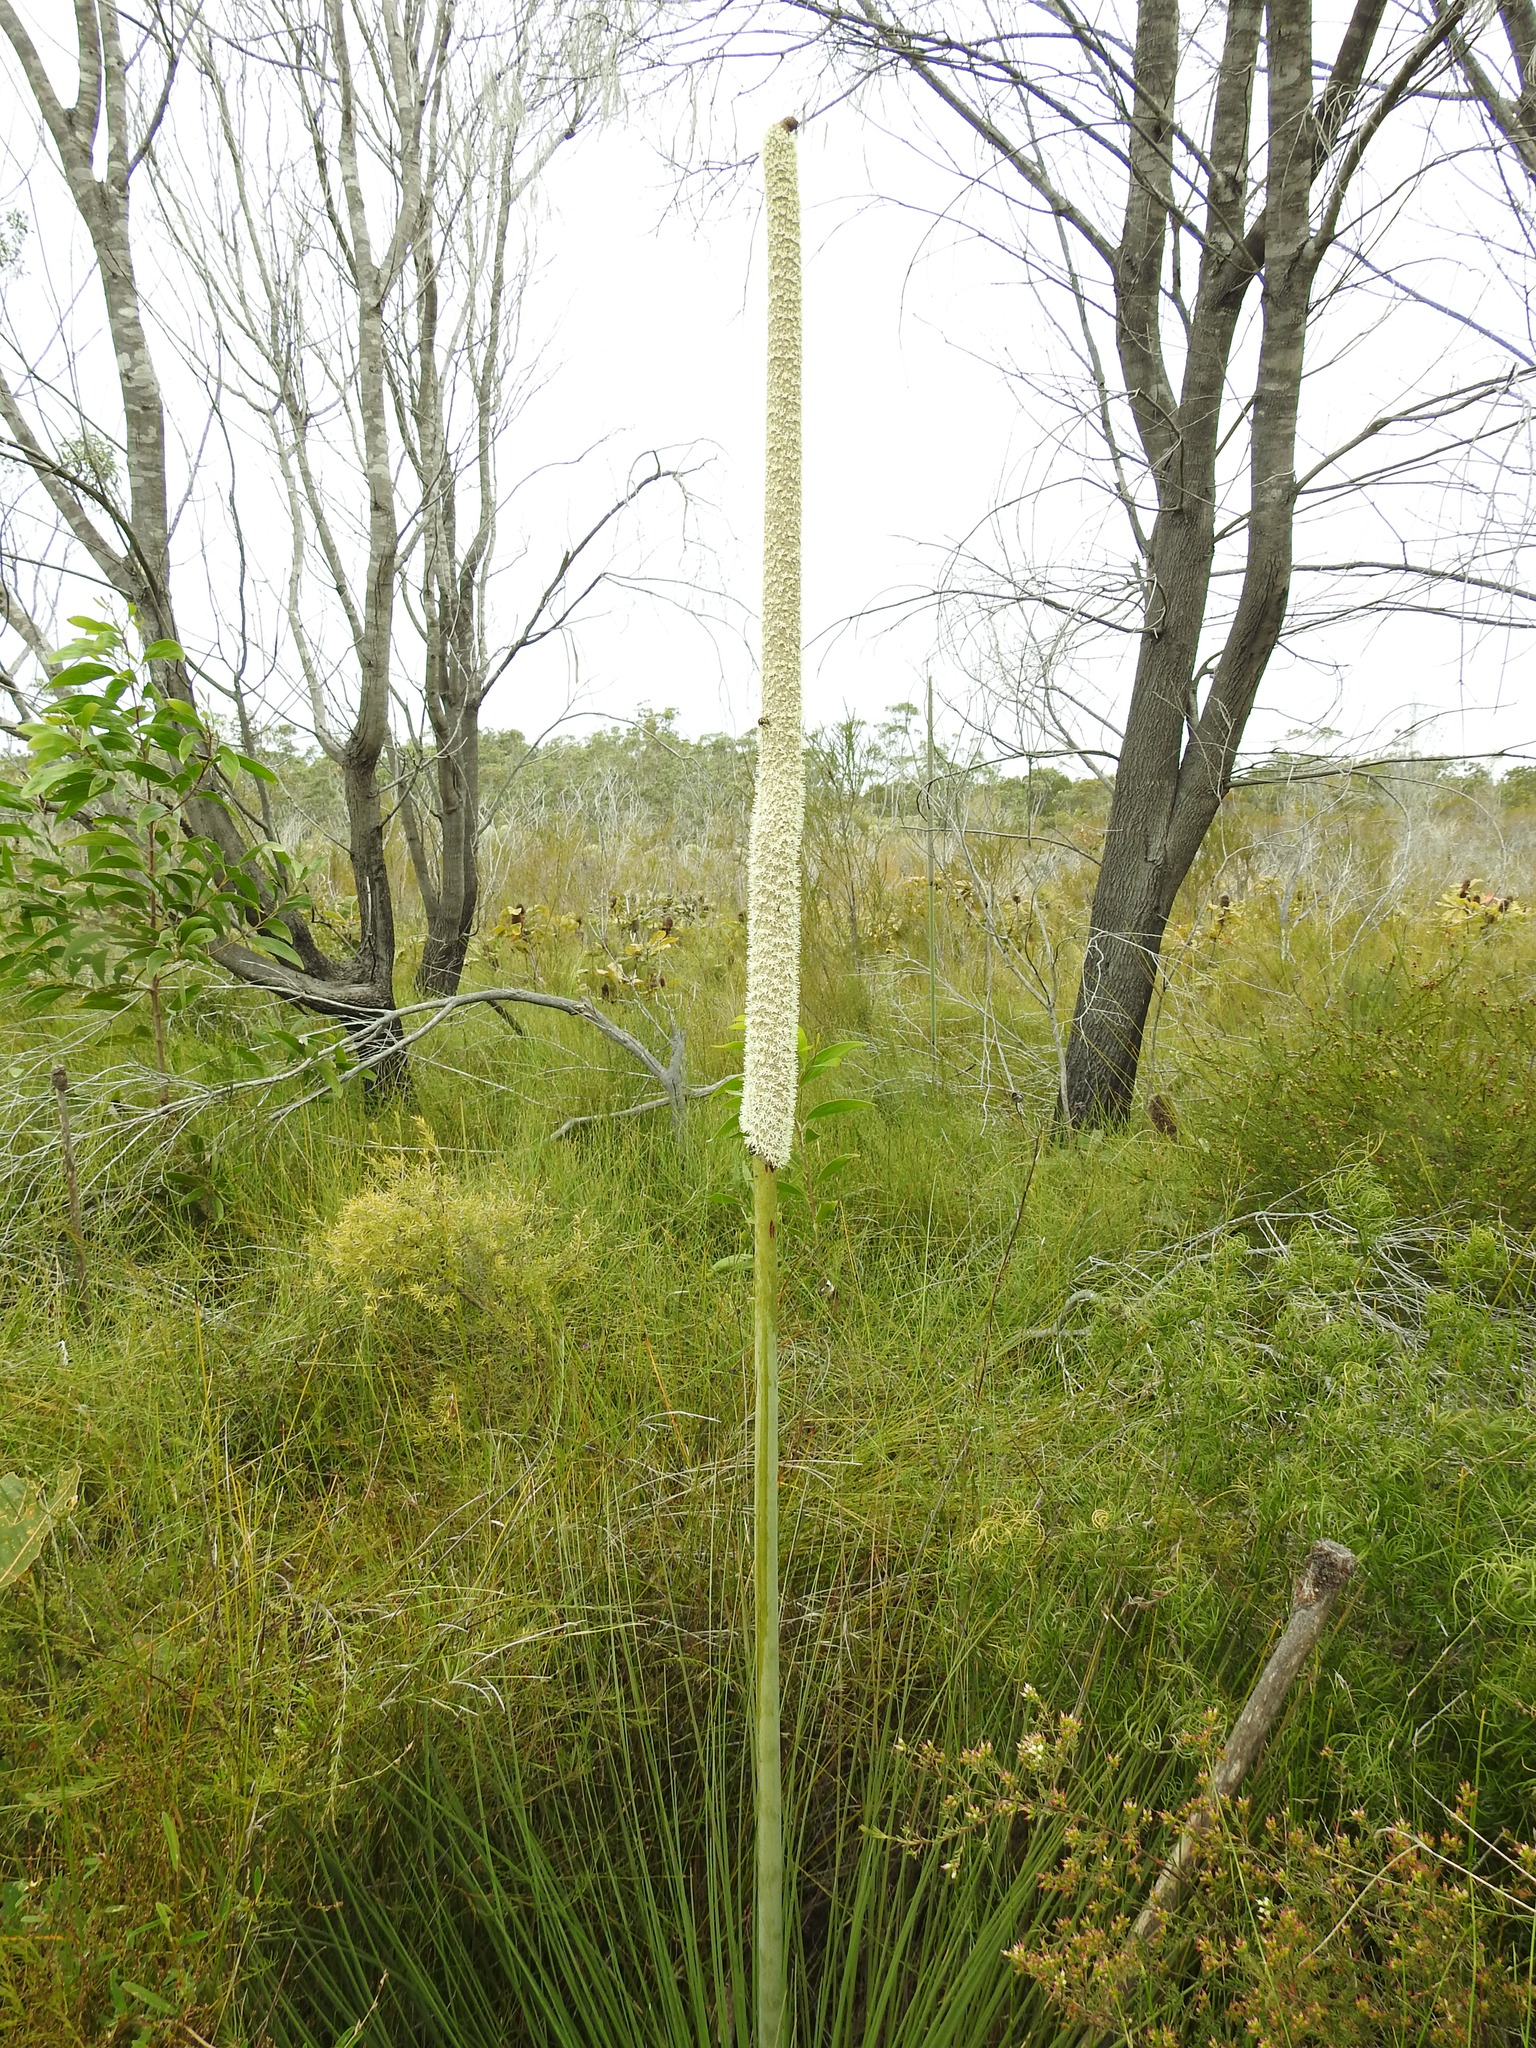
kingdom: Plantae
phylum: Tracheophyta
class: Liliopsida
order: Asparagales
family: Asphodelaceae
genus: Xanthorrhoea
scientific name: Xanthorrhoea fulva
